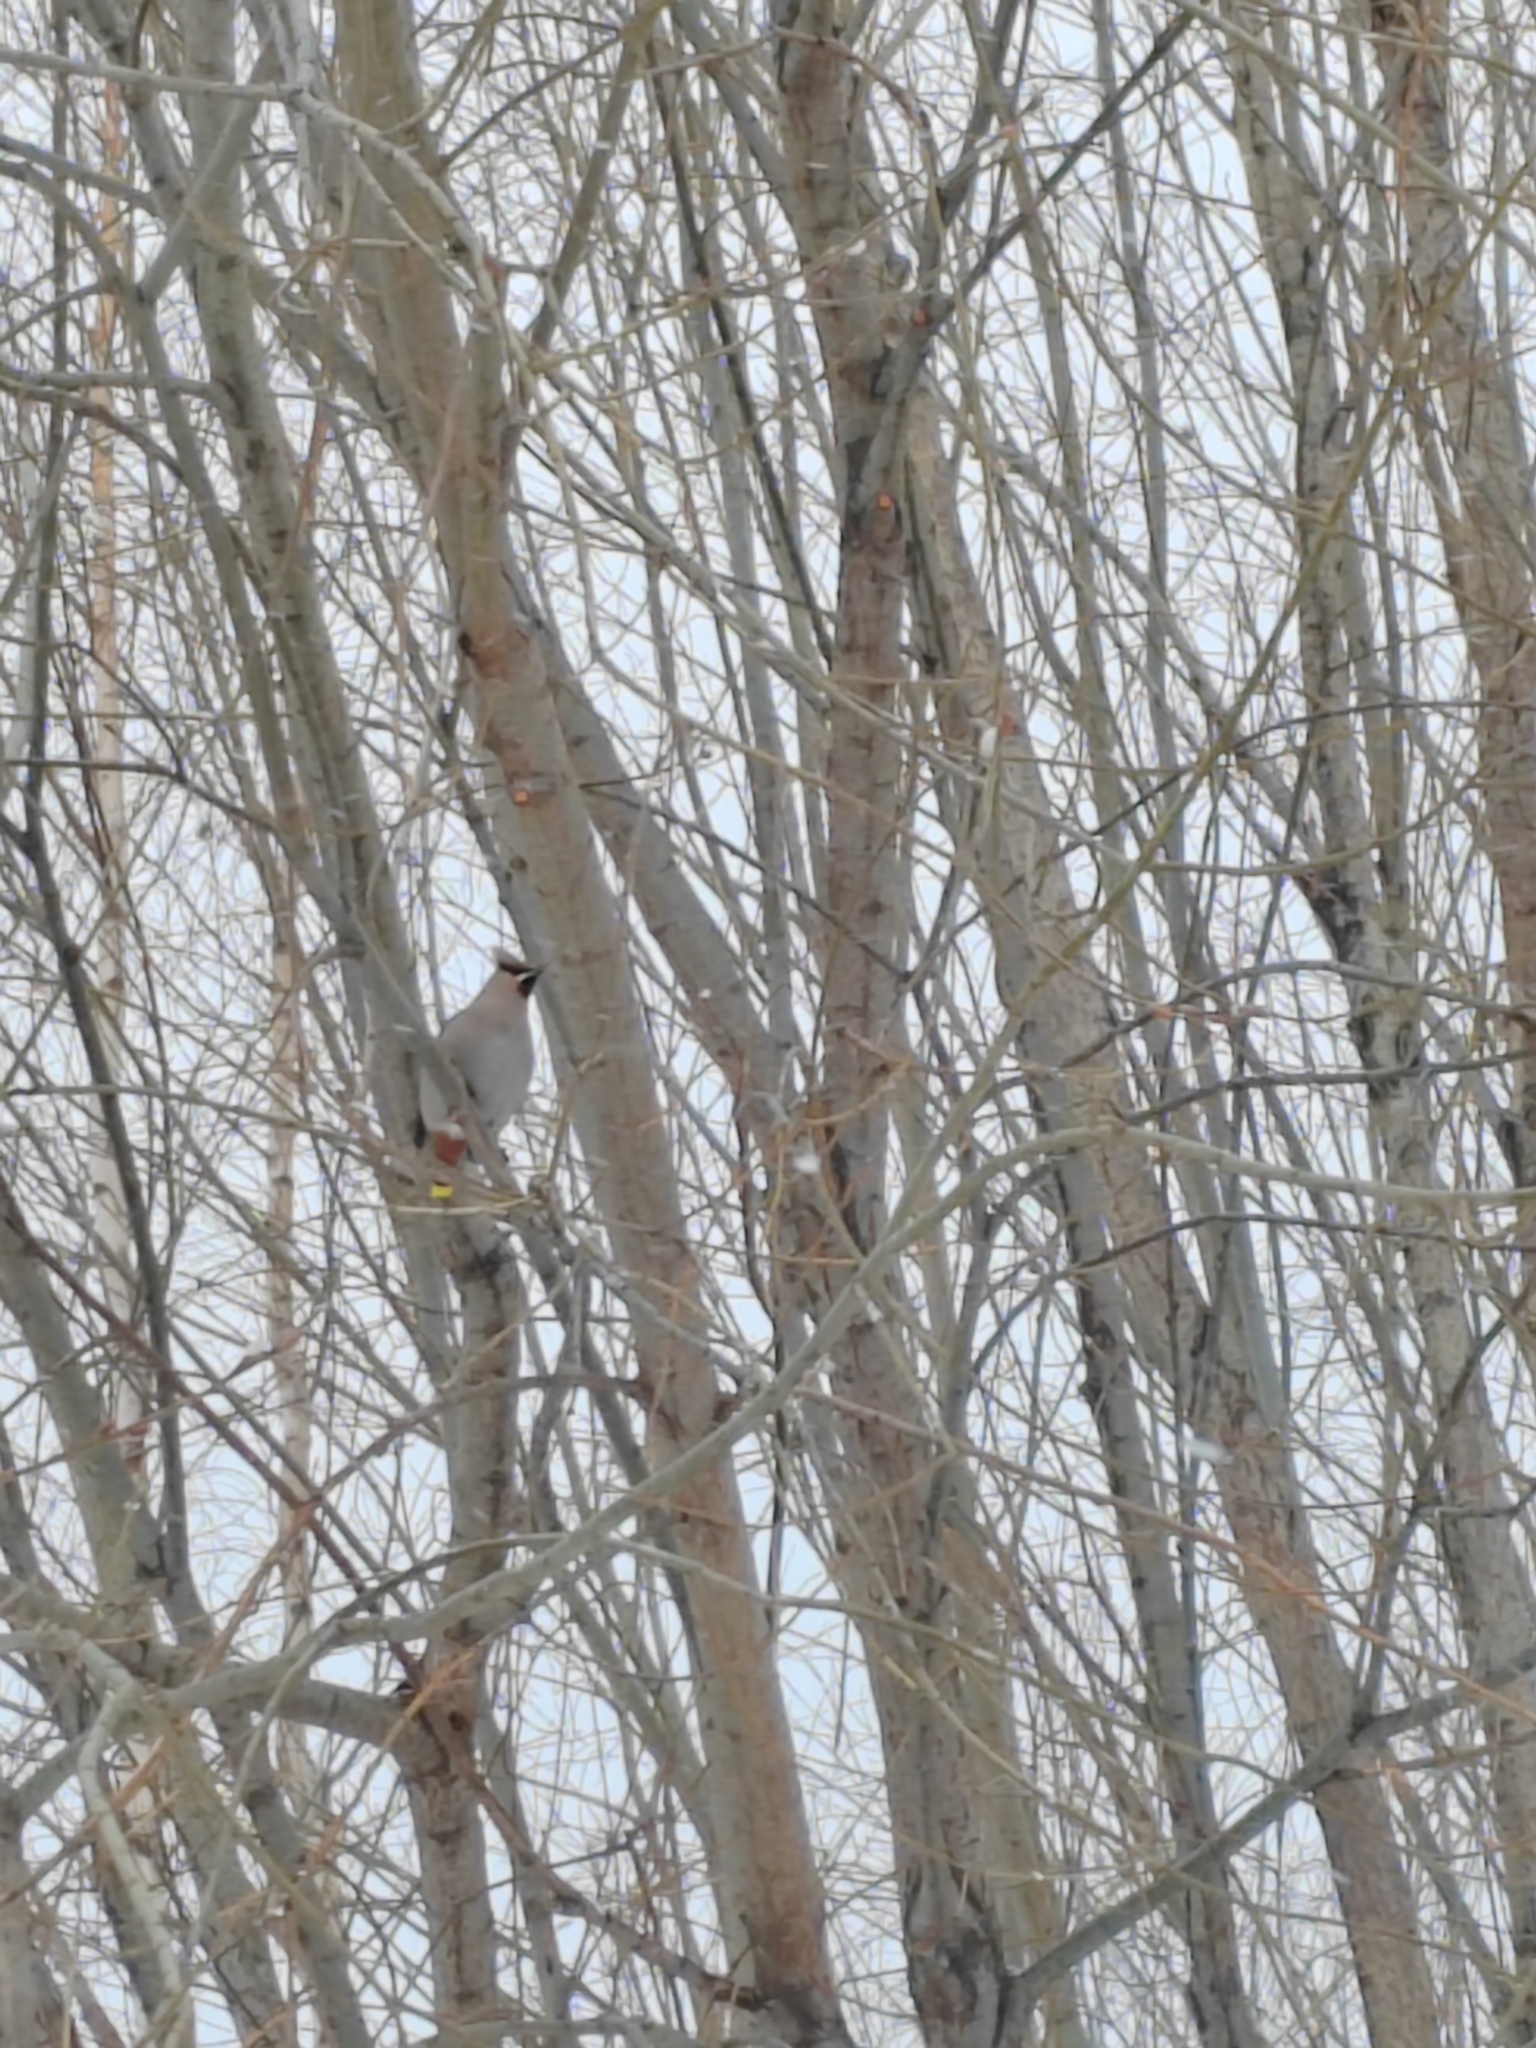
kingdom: Animalia
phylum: Chordata
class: Aves
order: Passeriformes
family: Bombycillidae
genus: Bombycilla
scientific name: Bombycilla garrulus
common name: Bohemian waxwing
